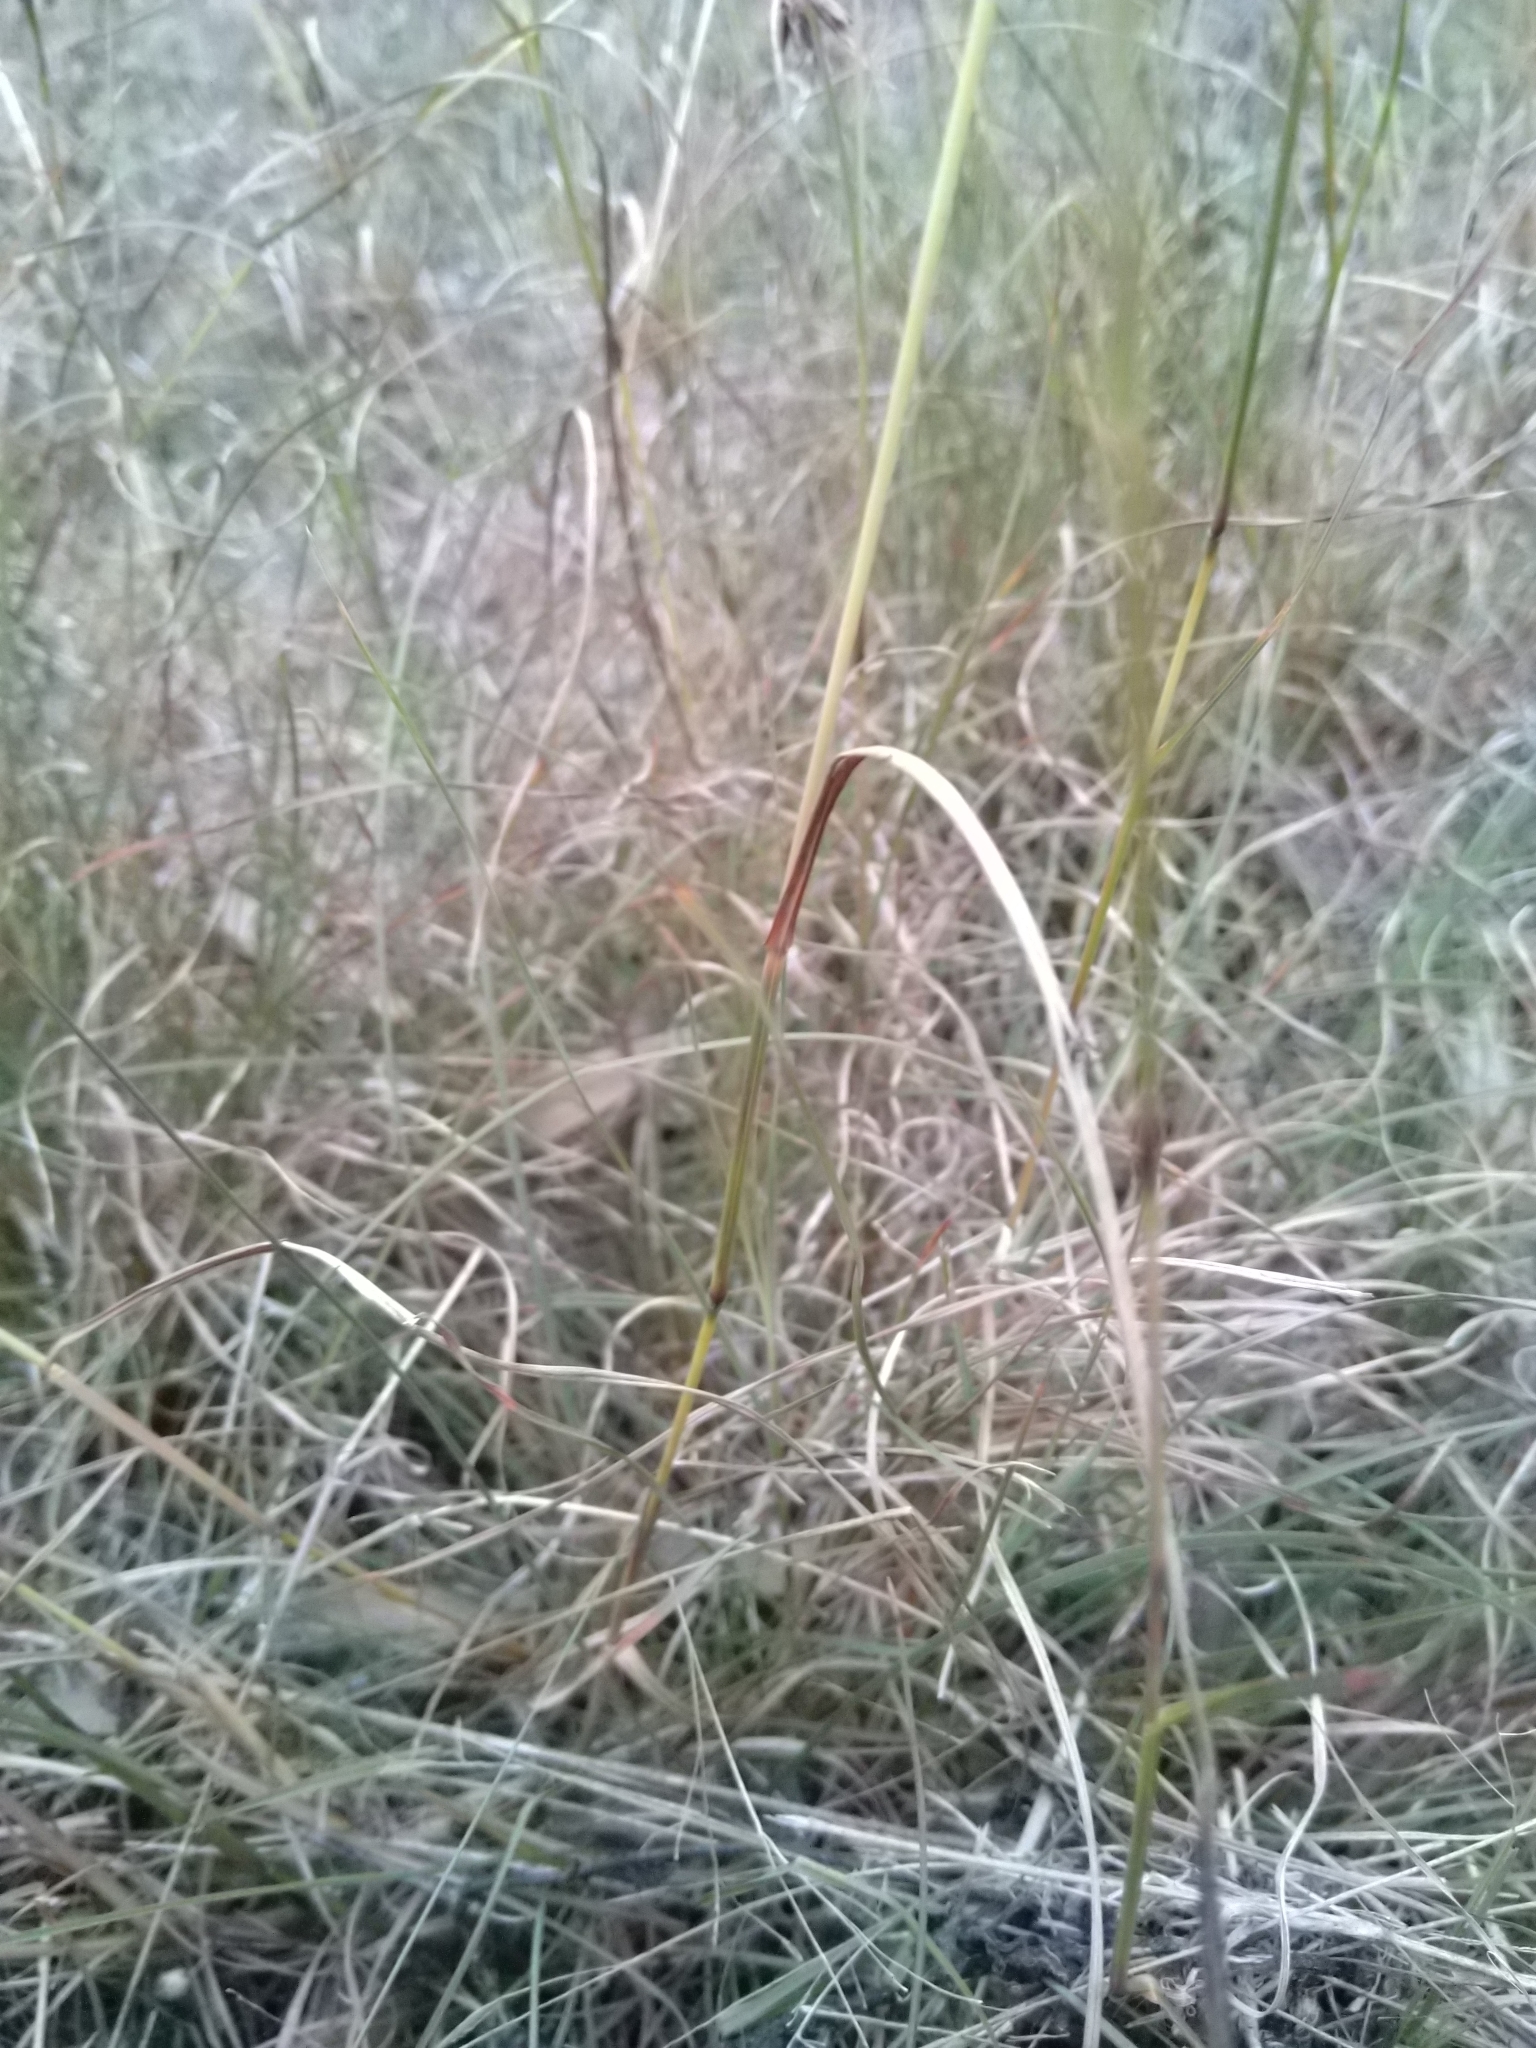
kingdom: Plantae
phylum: Tracheophyta
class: Liliopsida
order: Poales
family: Poaceae
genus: Themeda
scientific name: Themeda triandra
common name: Kangaroo grass
